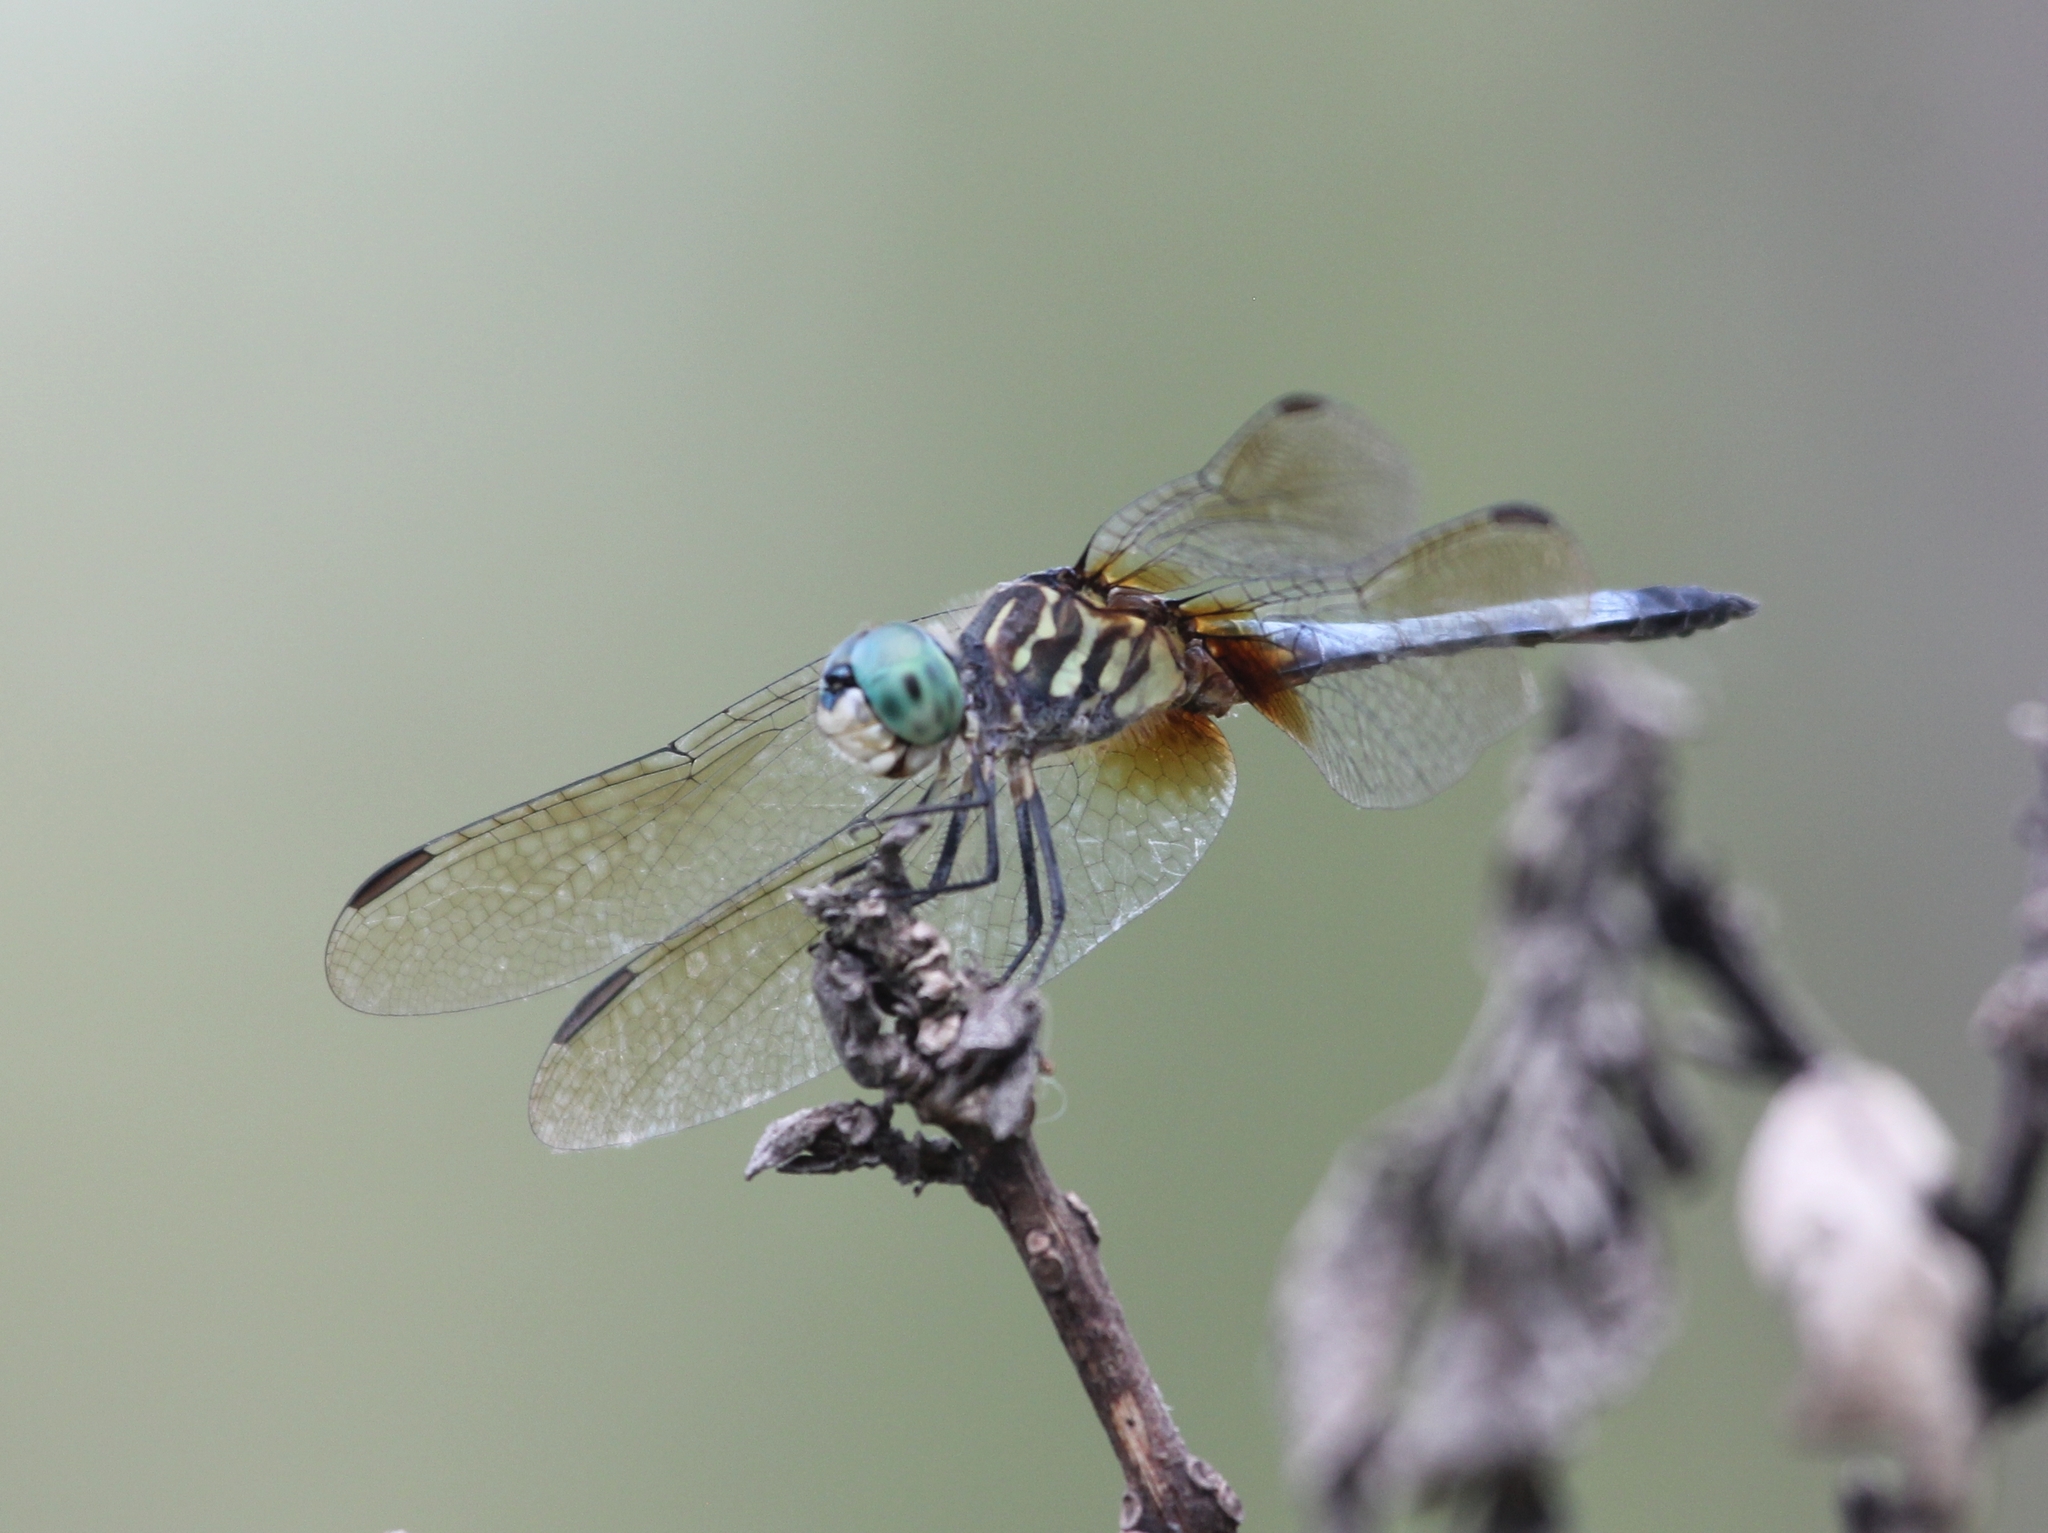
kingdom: Animalia
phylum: Arthropoda
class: Insecta
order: Odonata
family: Libellulidae
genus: Pachydiplax
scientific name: Pachydiplax longipennis
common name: Blue dasher
